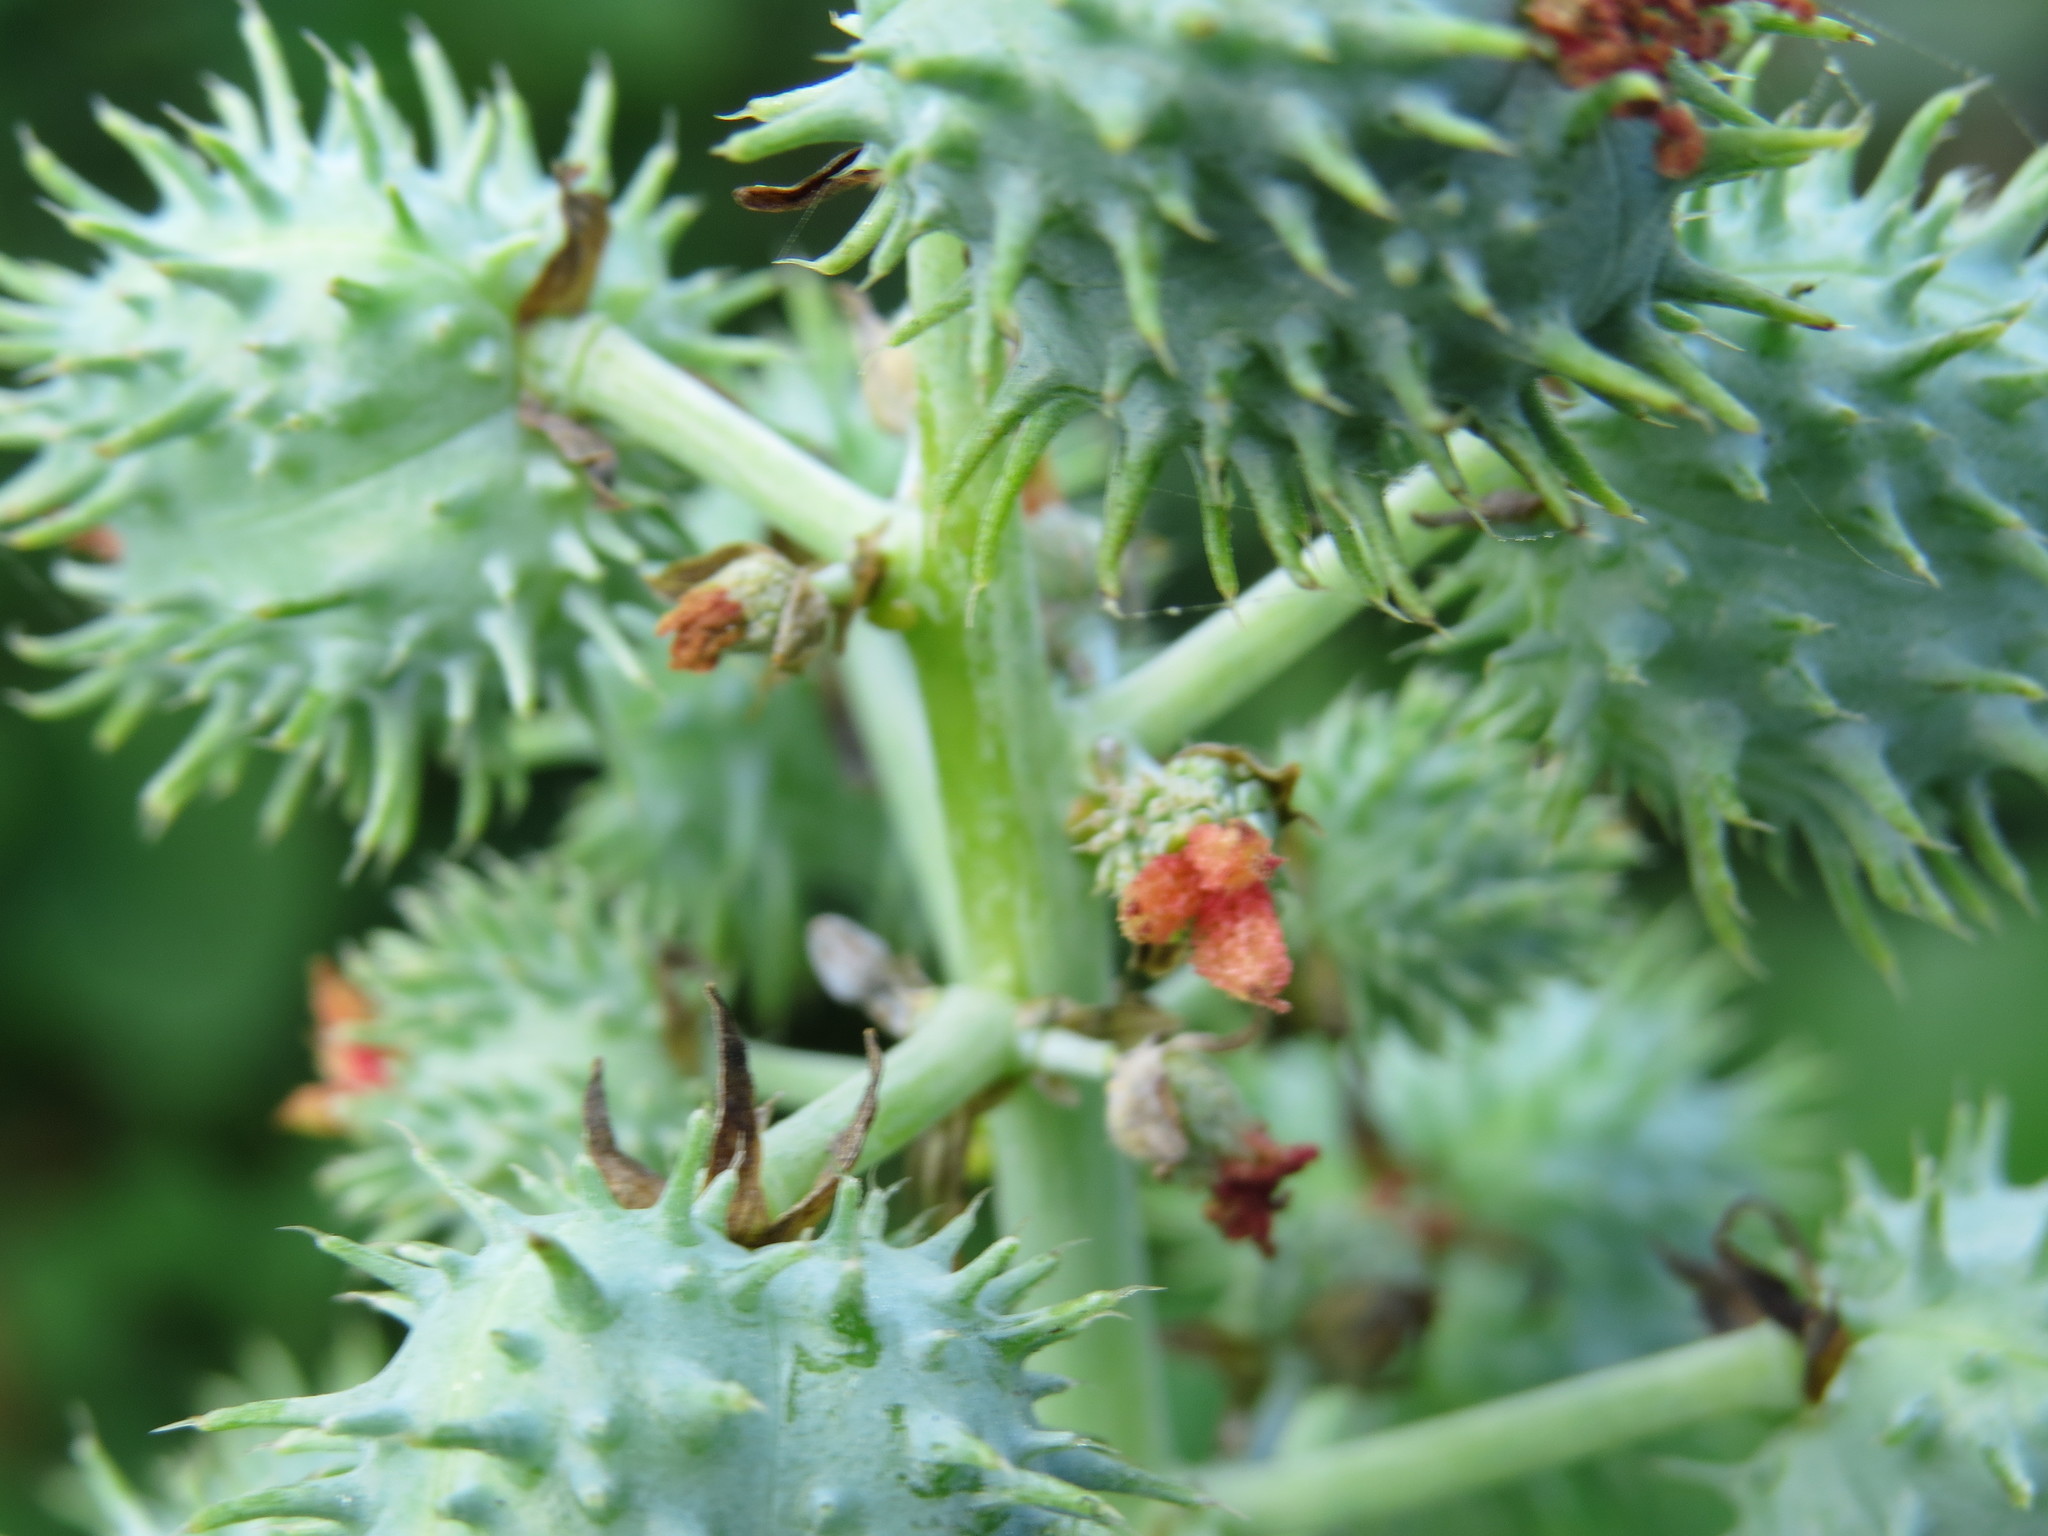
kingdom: Plantae
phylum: Tracheophyta
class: Magnoliopsida
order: Malpighiales
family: Euphorbiaceae
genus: Ricinus
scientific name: Ricinus communis
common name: Castor-oil-plant
